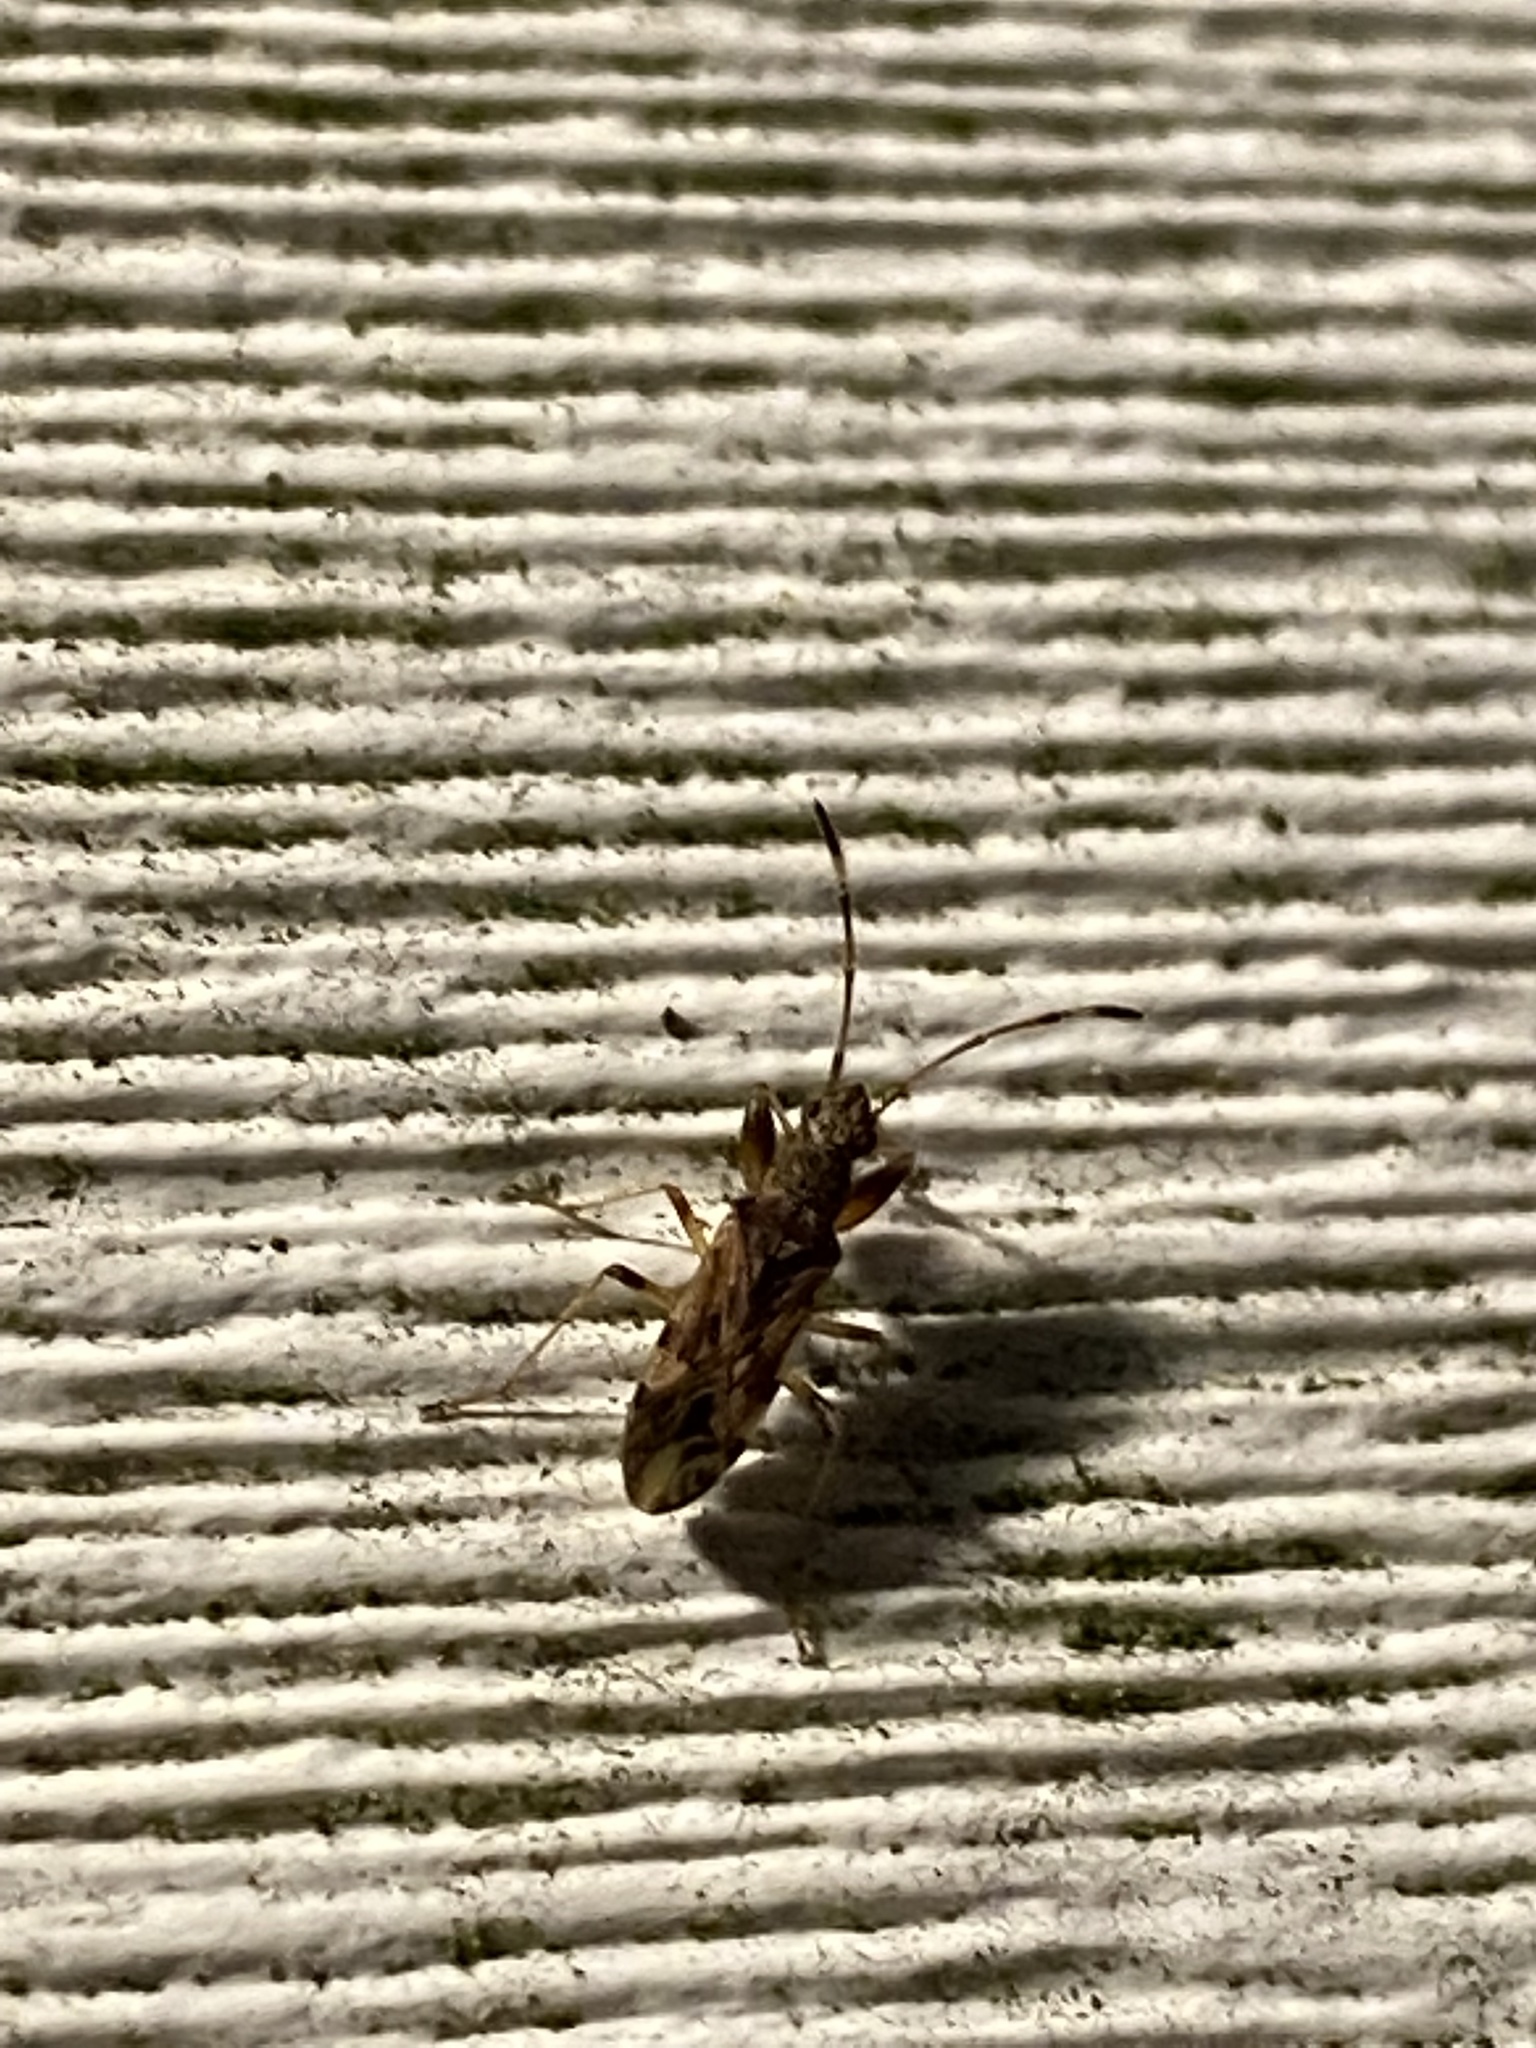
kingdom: Animalia
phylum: Arthropoda
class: Insecta
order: Hemiptera
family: Rhyparochromidae
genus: Neopamera
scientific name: Neopamera albocincta
